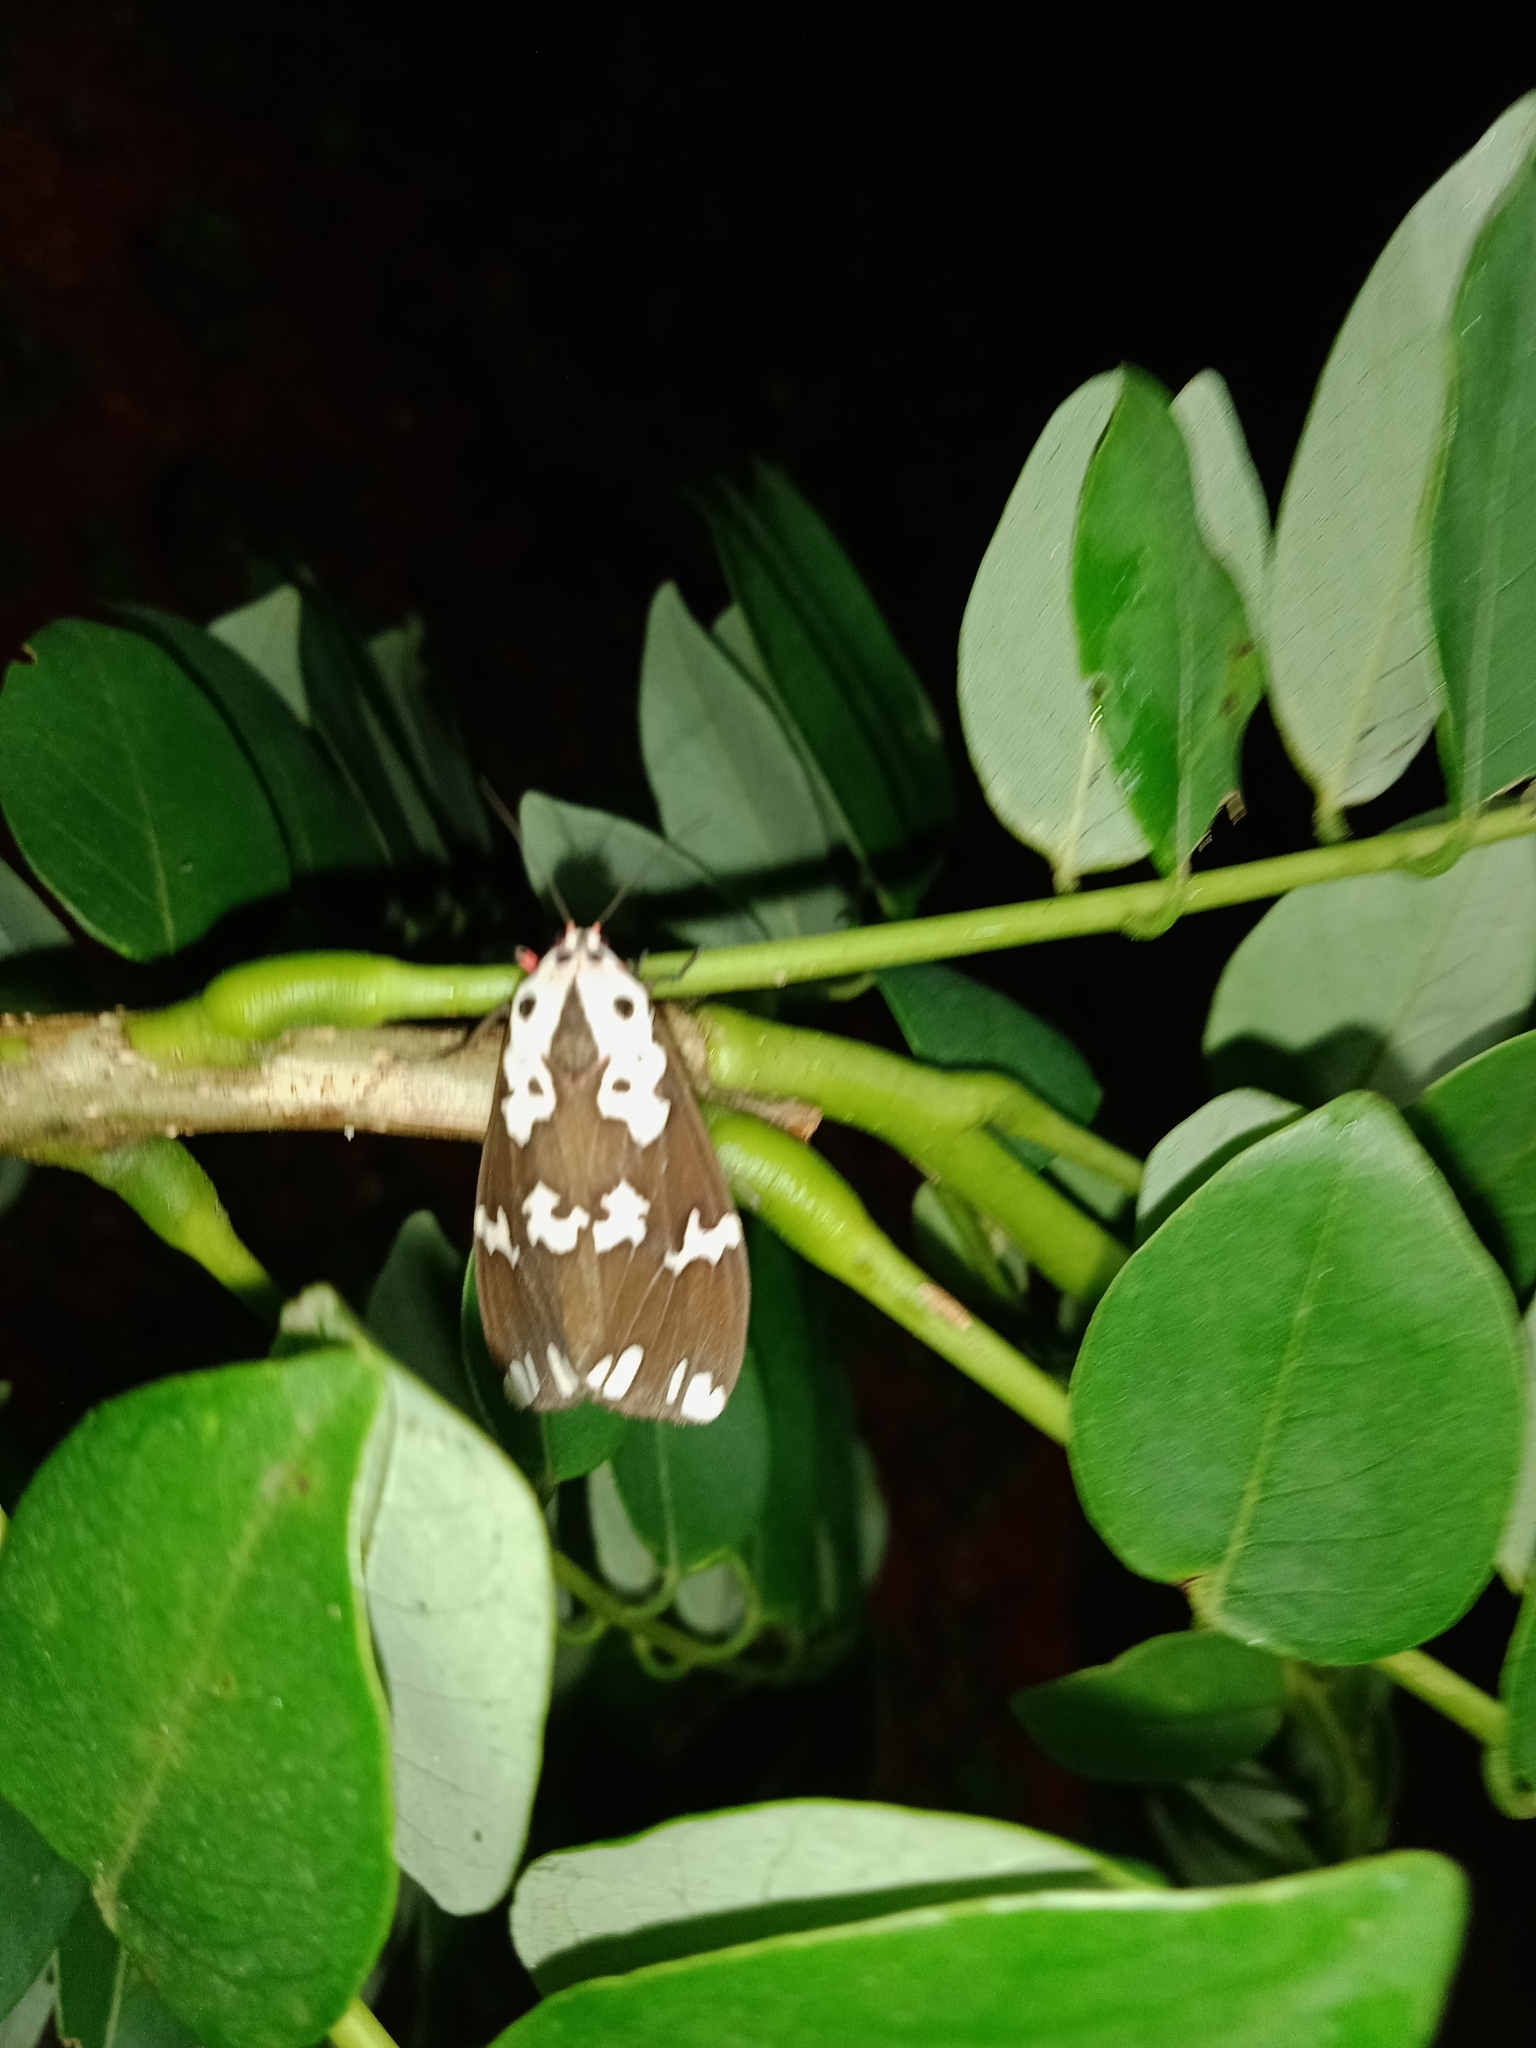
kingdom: Animalia
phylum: Arthropoda
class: Insecta
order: Lepidoptera
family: Erebidae
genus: Pericallia
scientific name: Pericallia
